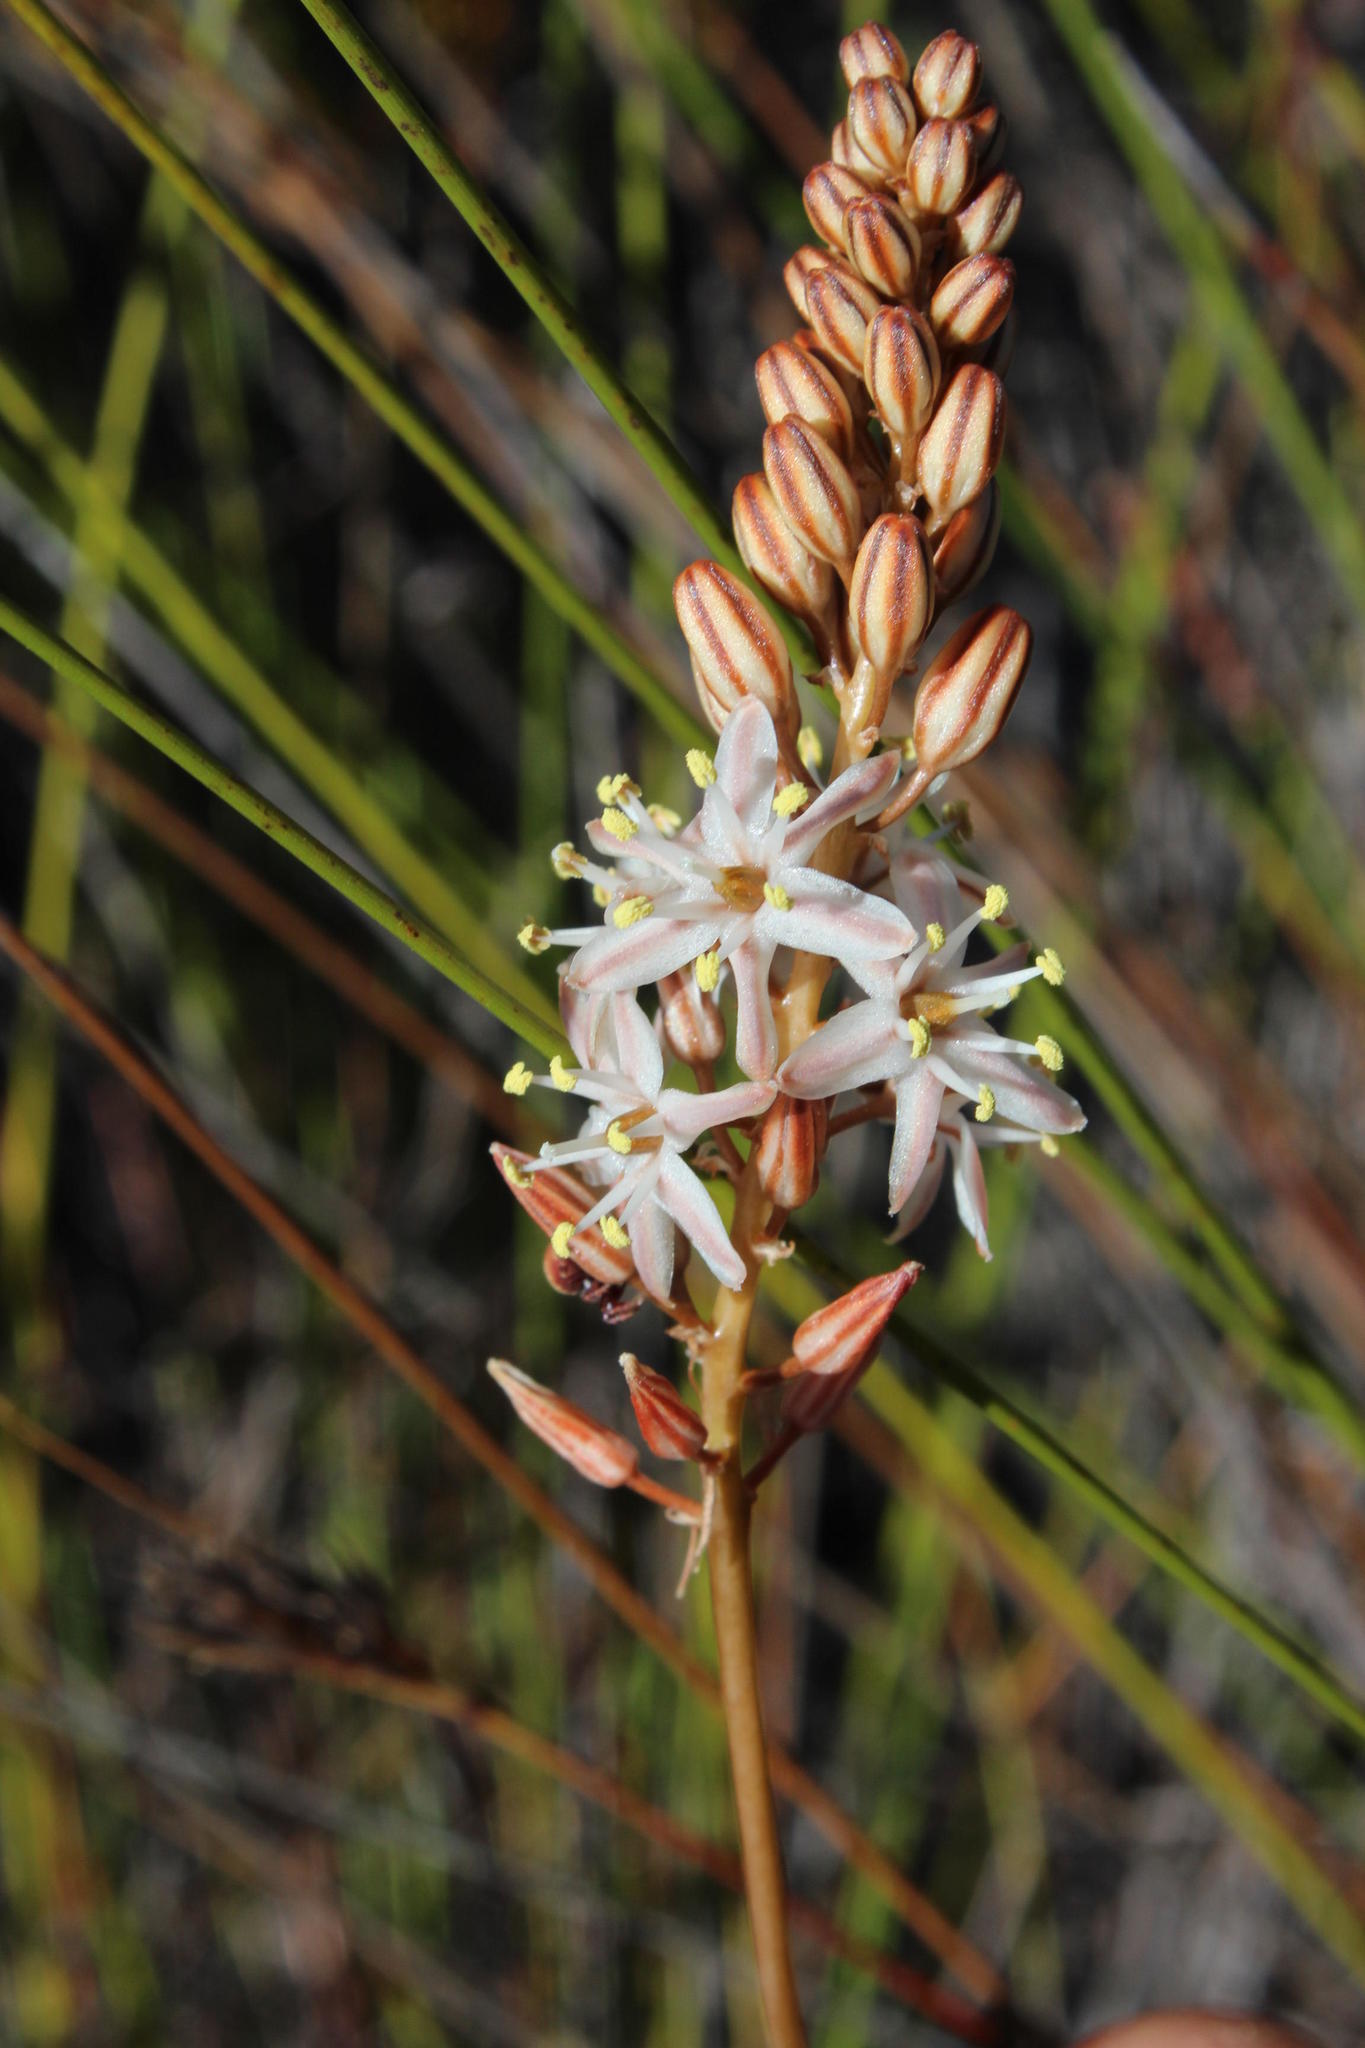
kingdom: Plantae
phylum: Tracheophyta
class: Liliopsida
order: Asparagales
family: Asparagaceae
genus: Drimia
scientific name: Drimia salteri
